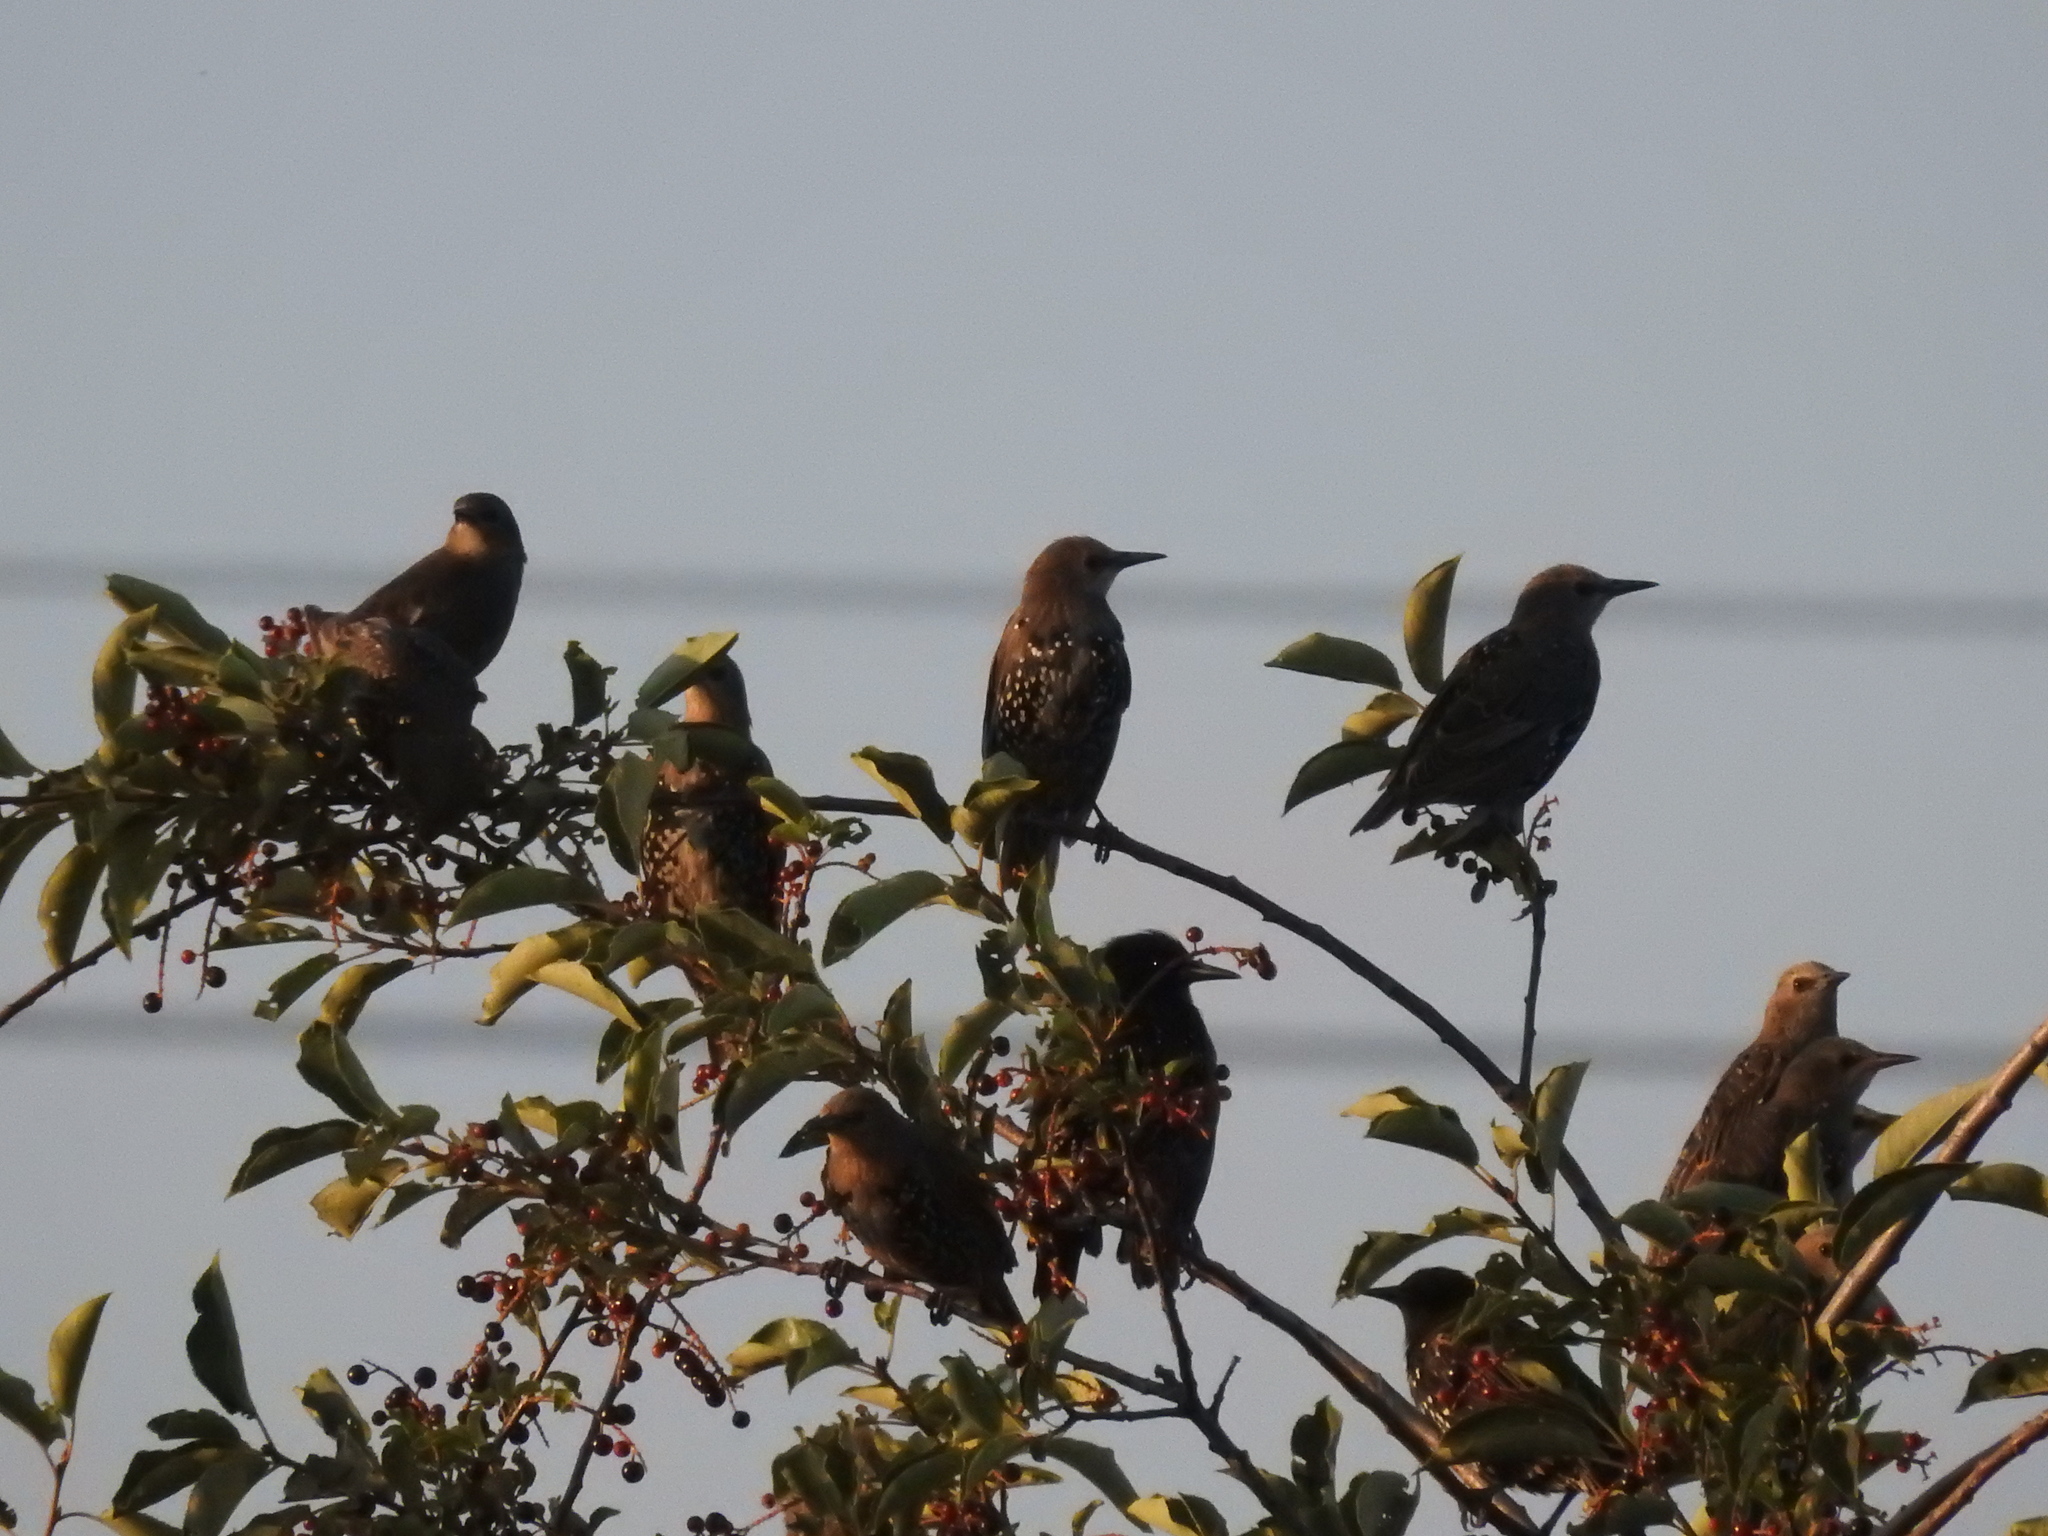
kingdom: Animalia
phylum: Chordata
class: Aves
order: Passeriformes
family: Sturnidae
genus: Sturnus
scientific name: Sturnus vulgaris
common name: Common starling
